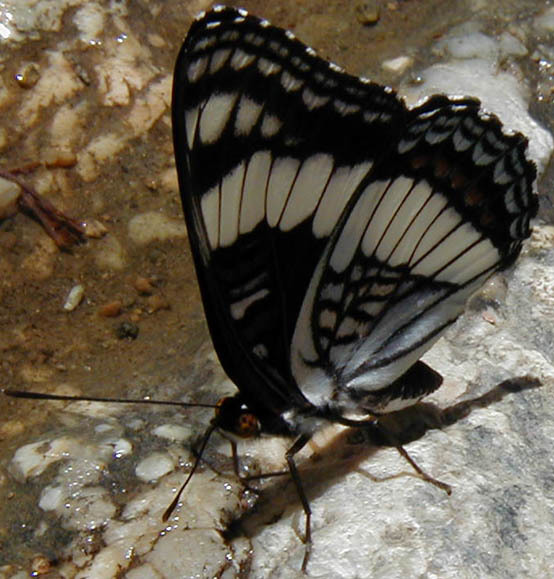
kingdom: Animalia
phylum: Arthropoda
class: Insecta
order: Lepidoptera
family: Nymphalidae
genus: Limenitis
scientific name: Limenitis weidemeyerii
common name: Weidemeyer's admiral
